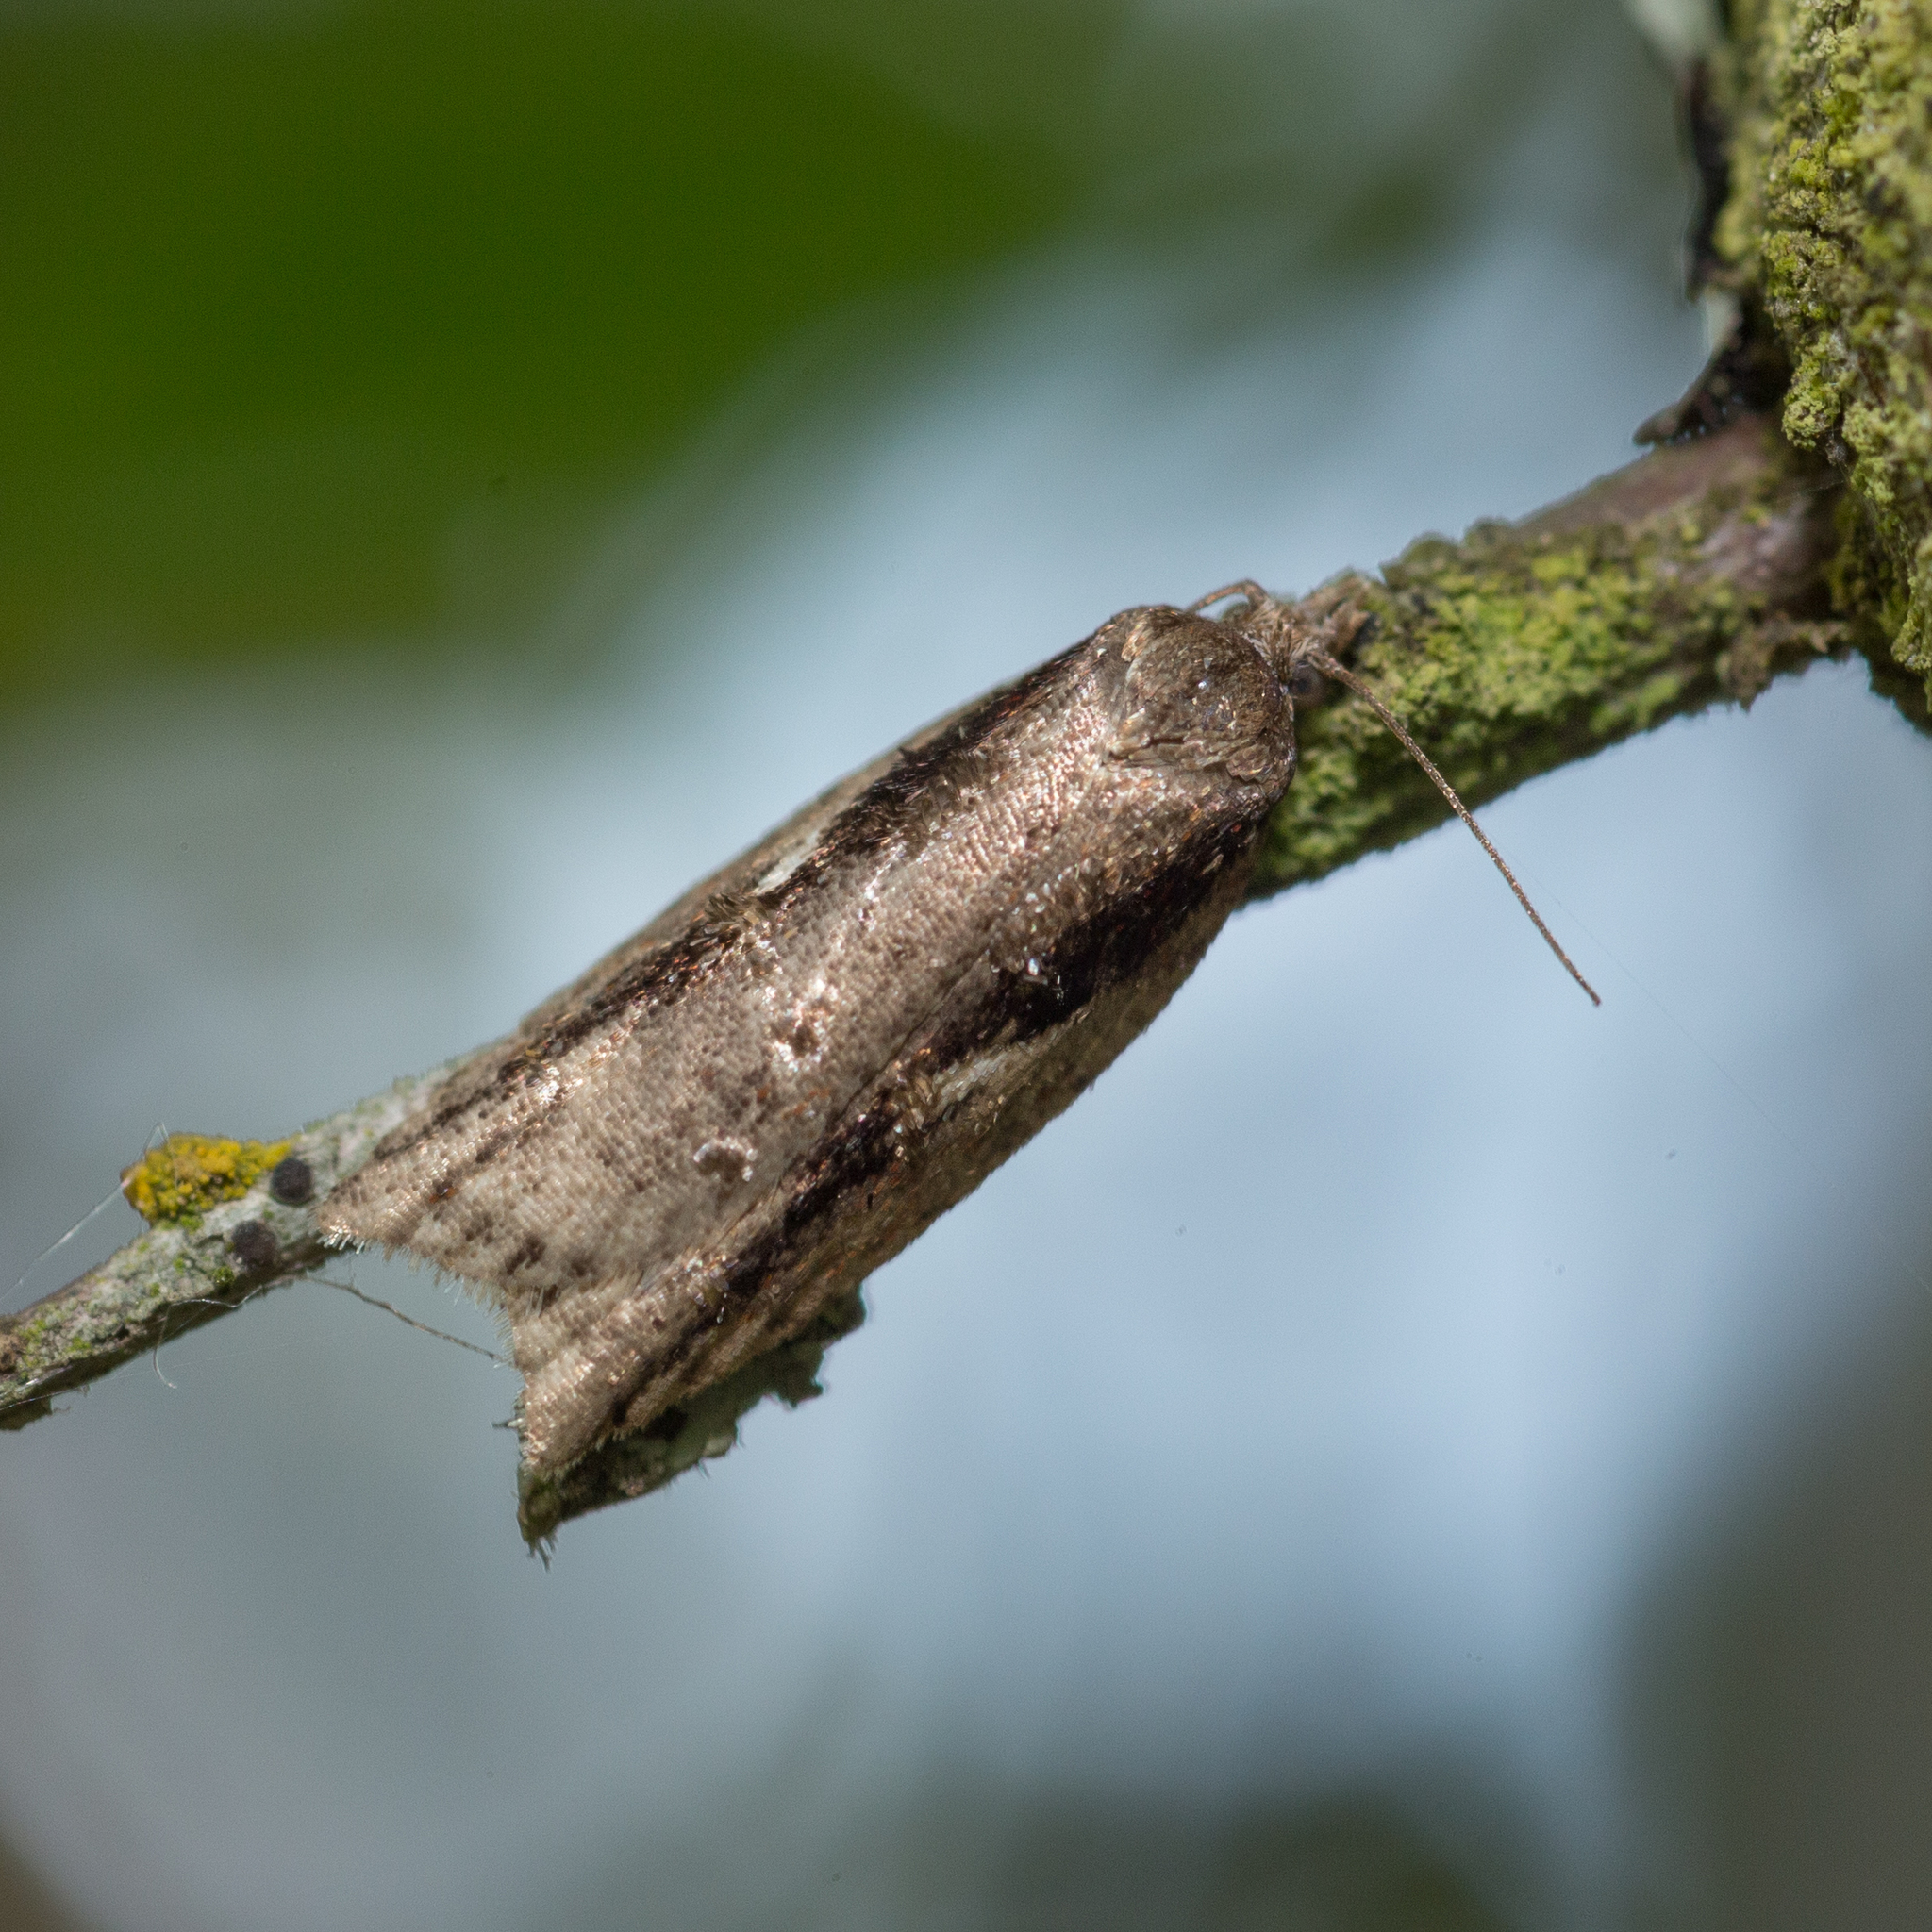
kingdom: Animalia
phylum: Arthropoda
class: Insecta
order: Lepidoptera
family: Tortricidae
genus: Acleris
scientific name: Acleris umbrana
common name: Dark-streaked button
